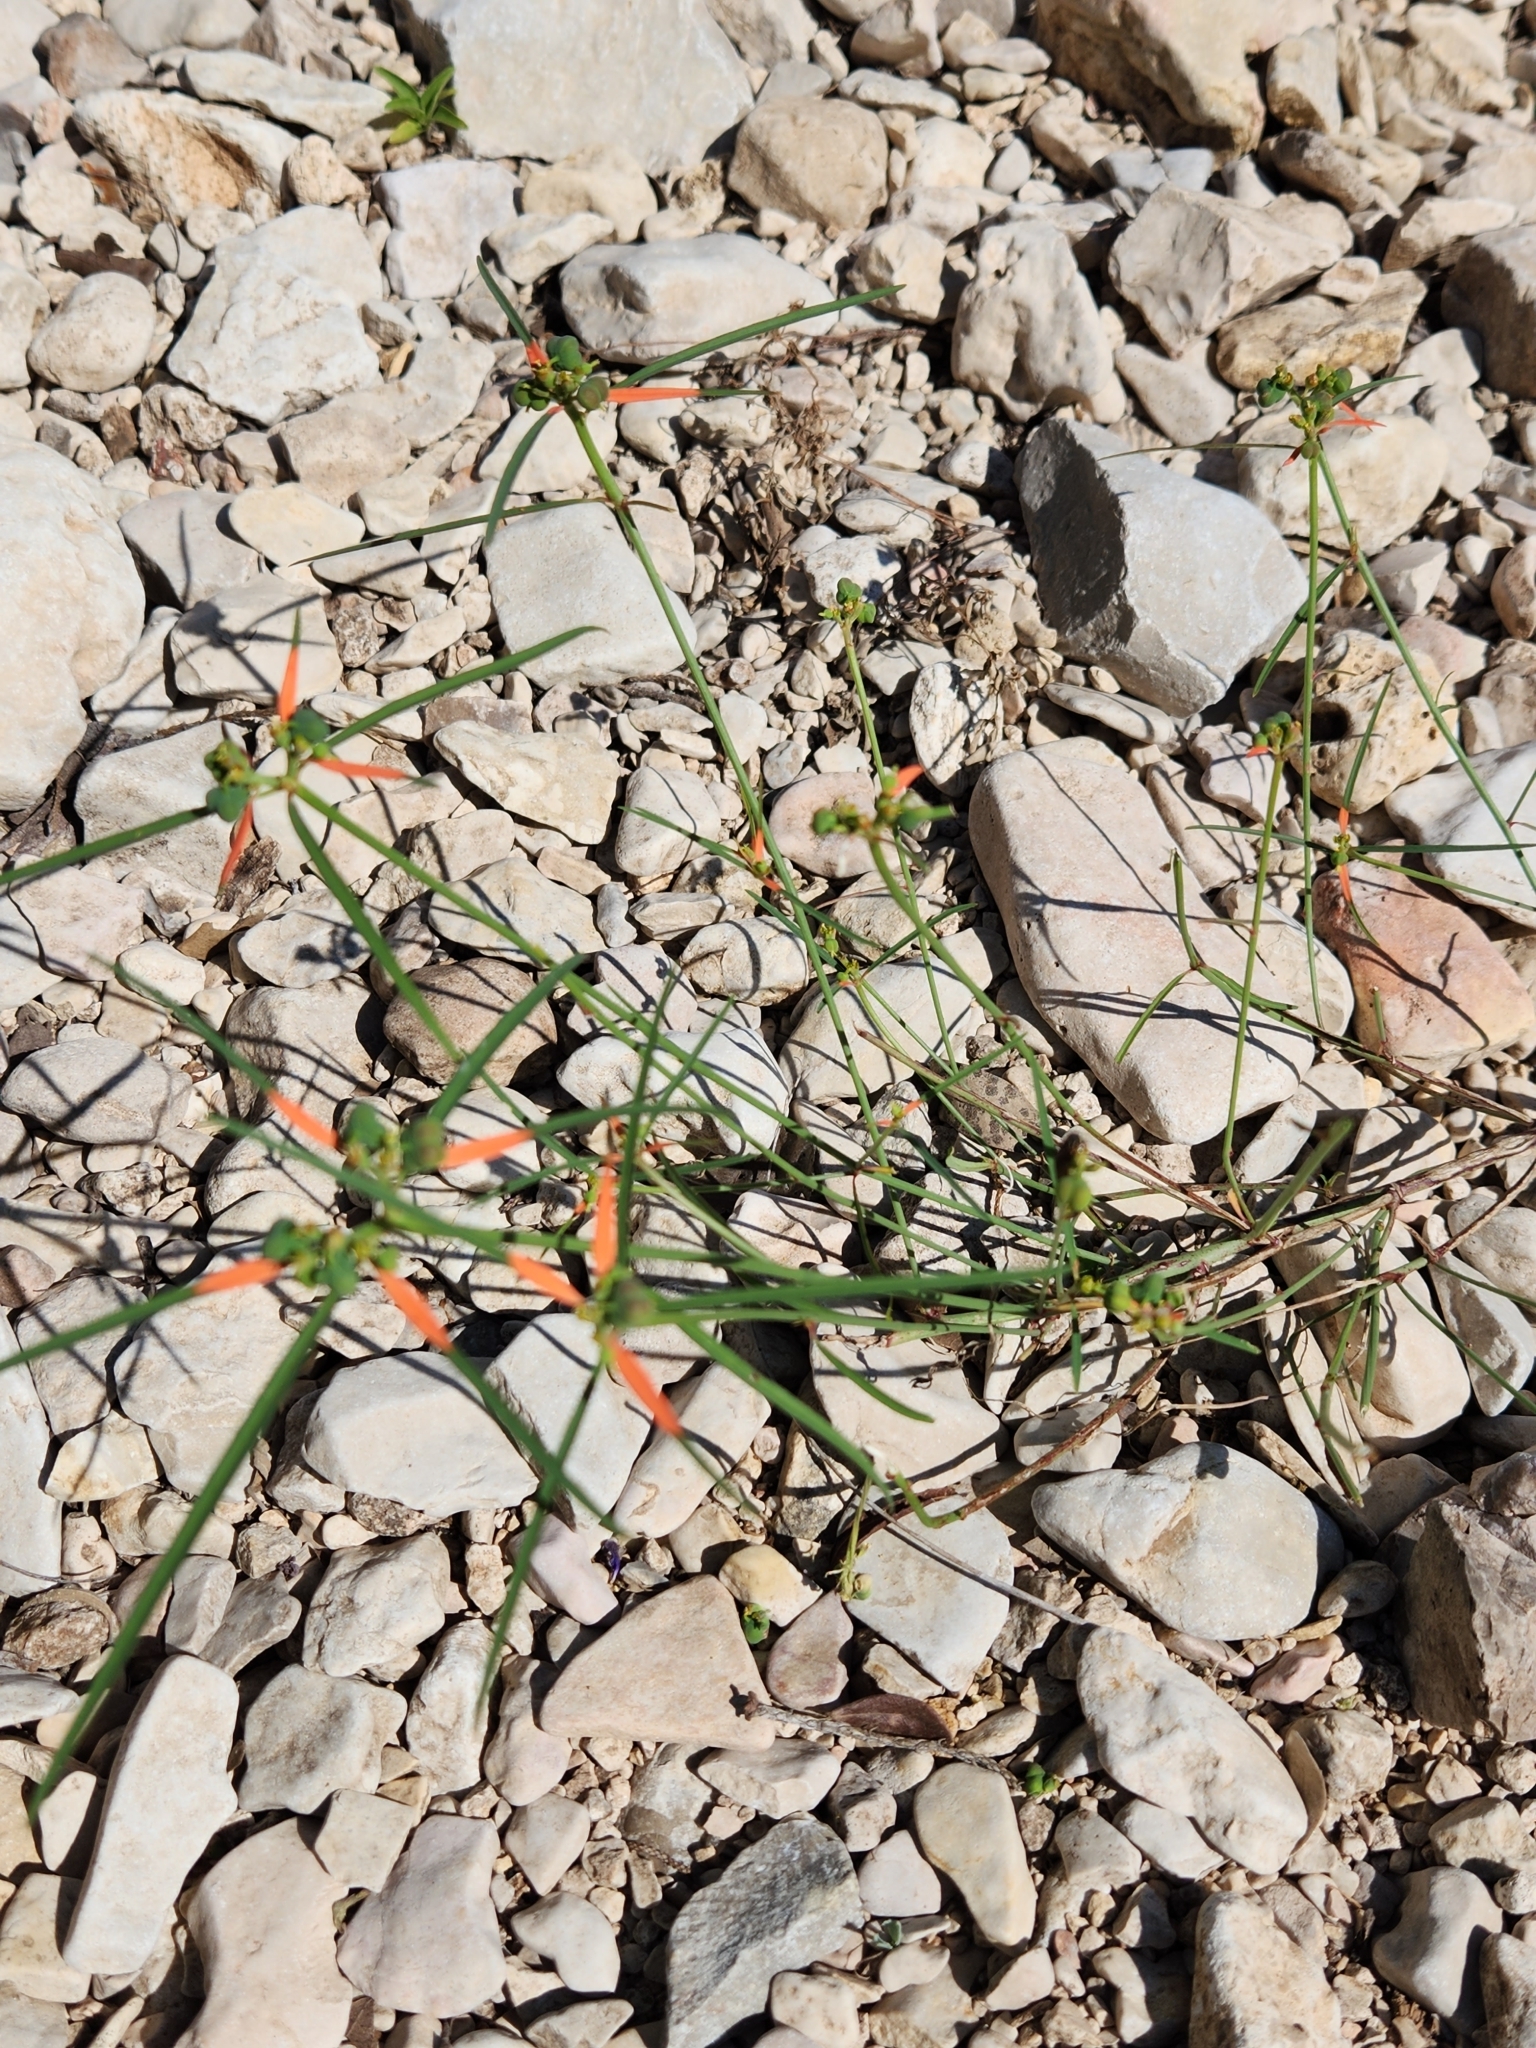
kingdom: Plantae
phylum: Tracheophyta
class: Magnoliopsida
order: Malpighiales
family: Euphorbiaceae
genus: Euphorbia
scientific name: Euphorbia heterophylla
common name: Mexican fireplant
